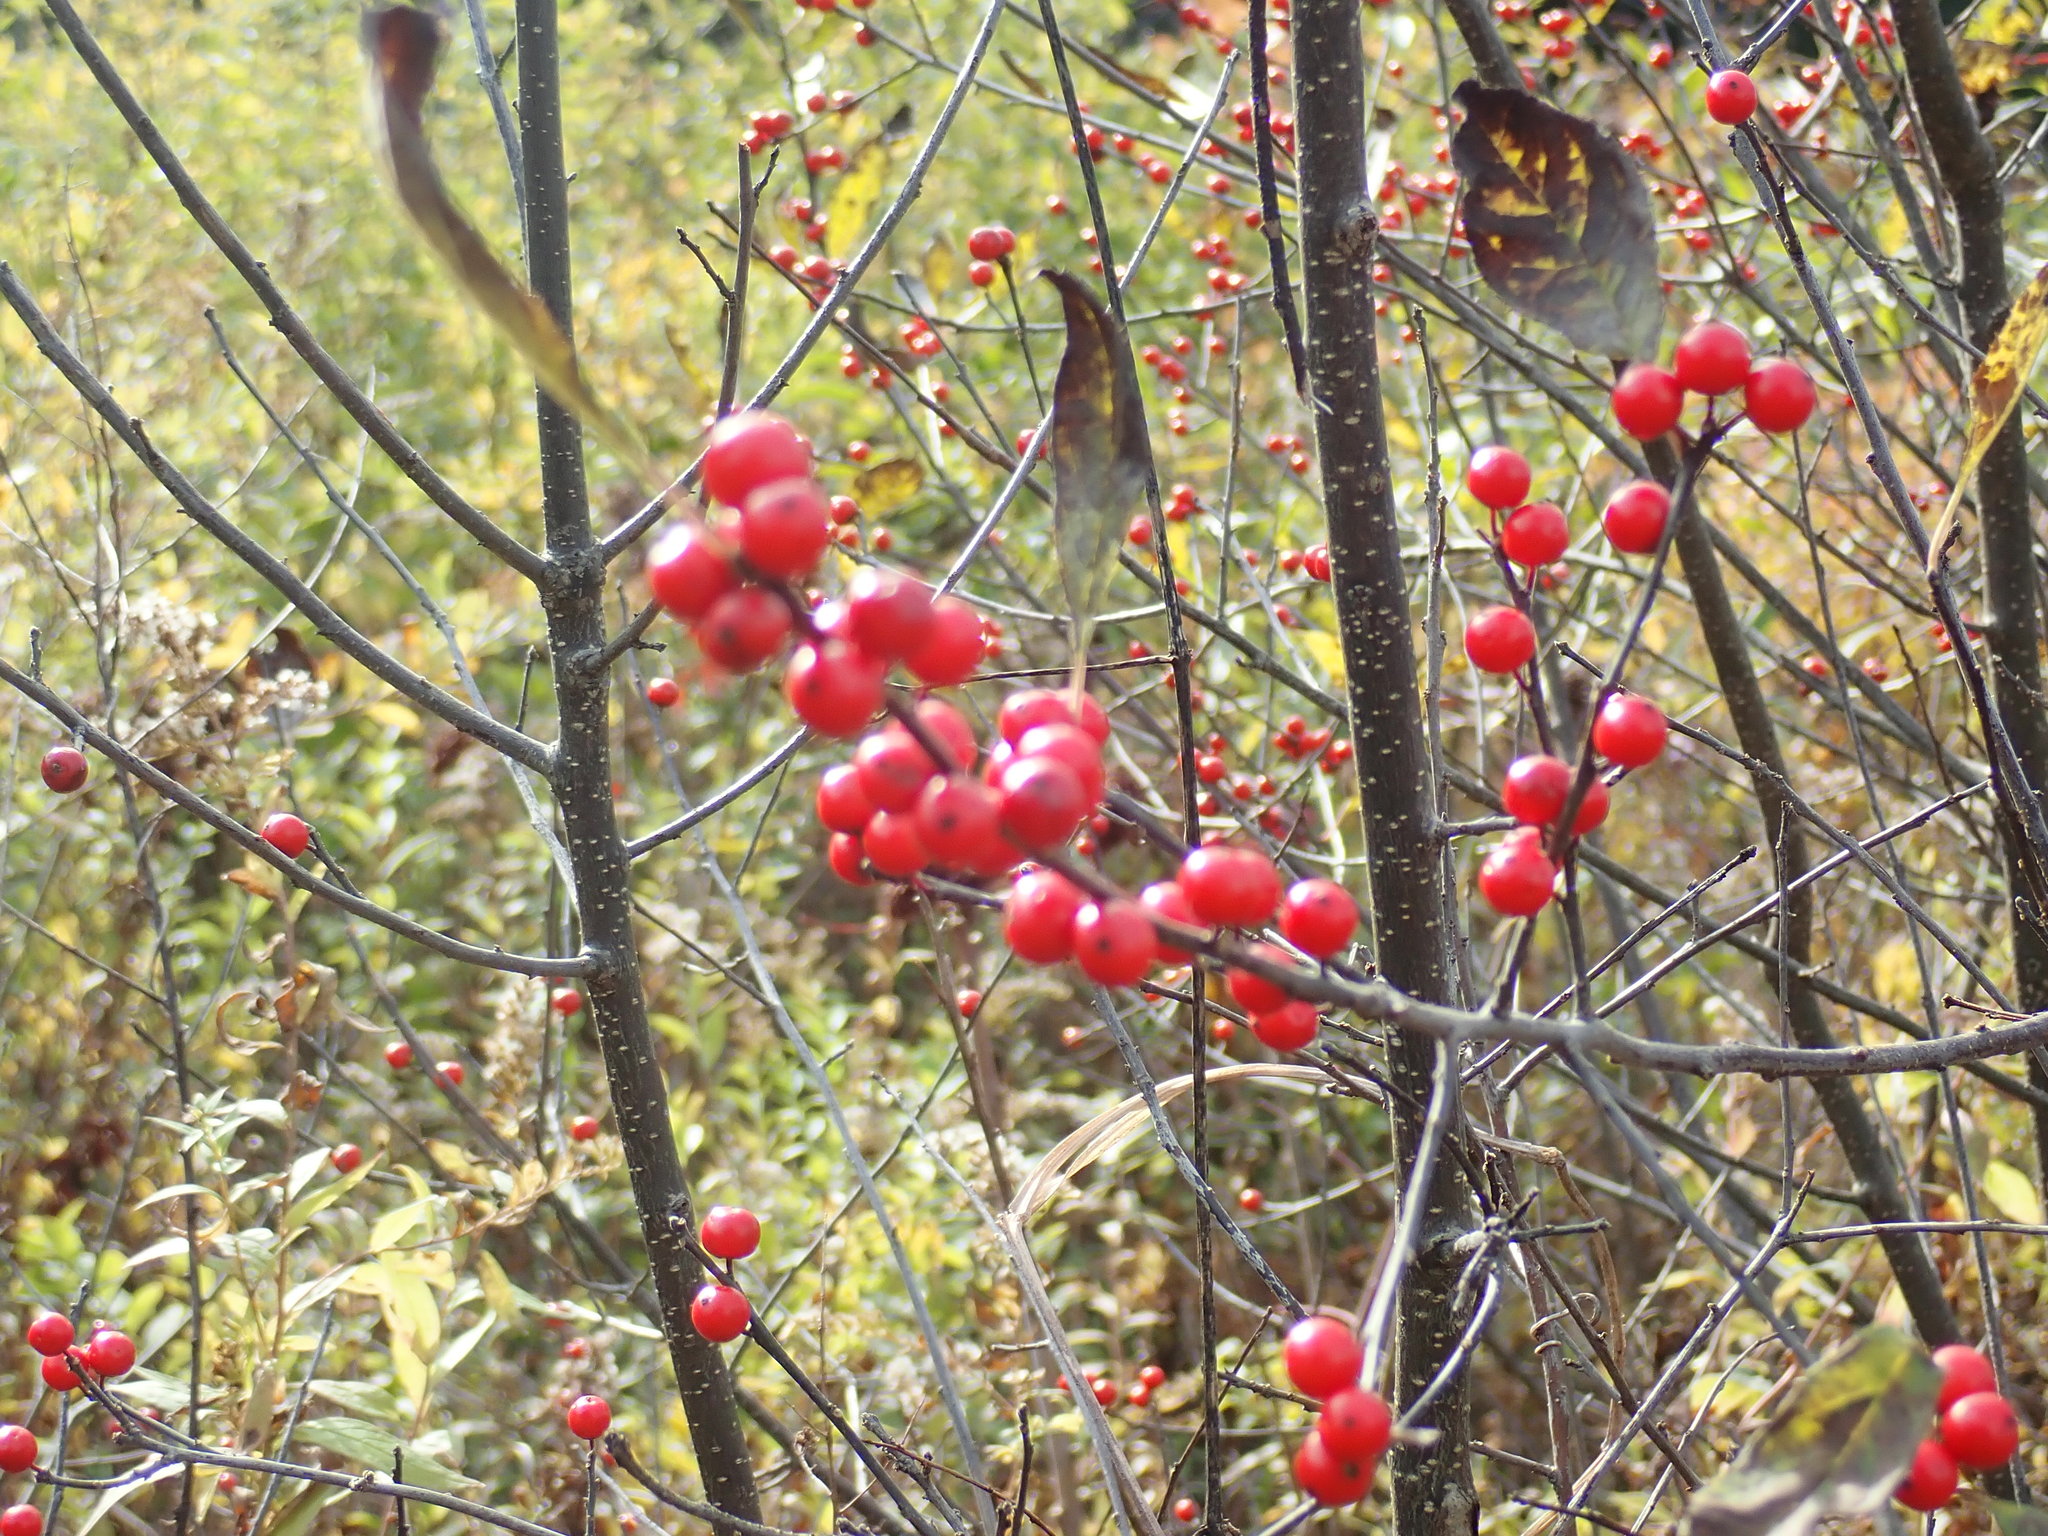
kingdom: Plantae
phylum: Tracheophyta
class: Magnoliopsida
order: Aquifoliales
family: Aquifoliaceae
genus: Ilex
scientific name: Ilex verticillata
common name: Virginia winterberry
